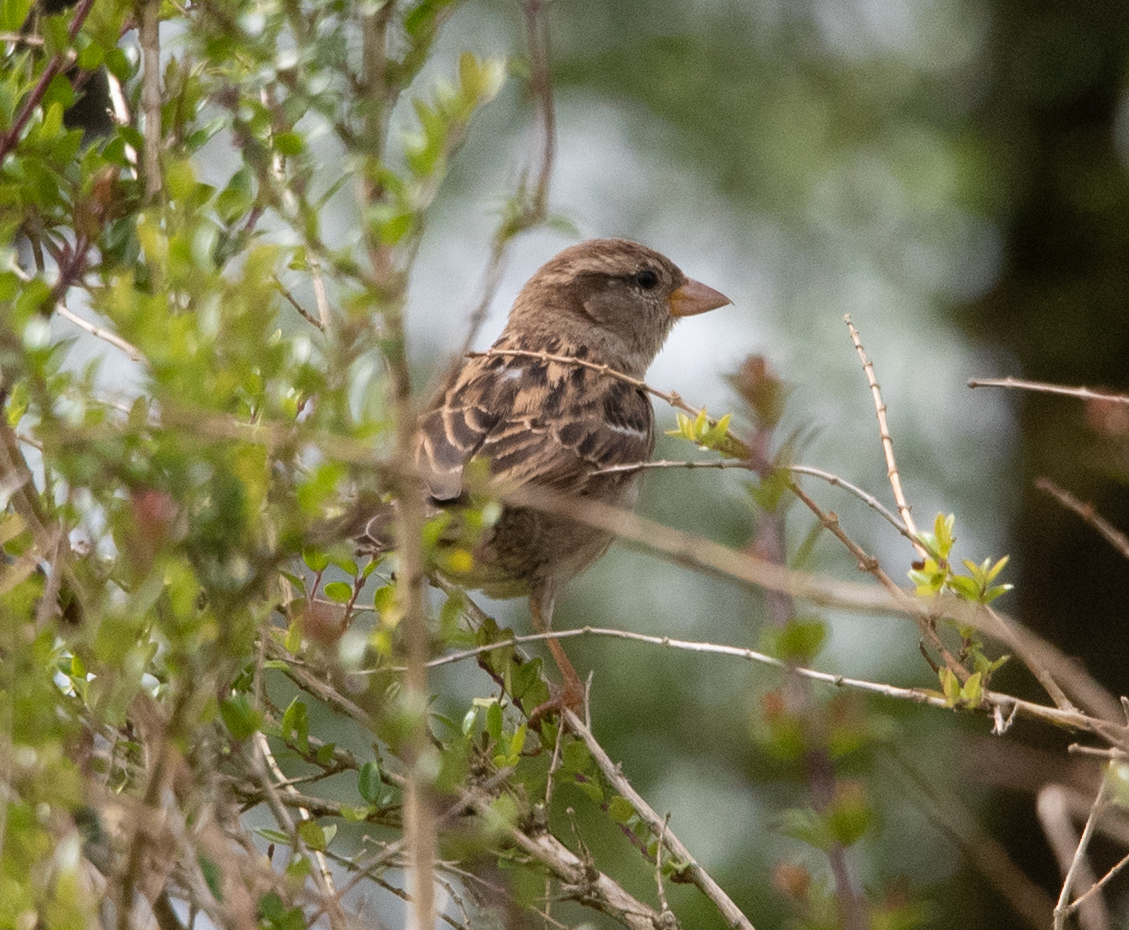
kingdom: Animalia
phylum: Chordata
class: Aves
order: Passeriformes
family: Passeridae
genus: Passer
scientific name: Passer domesticus
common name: House sparrow
